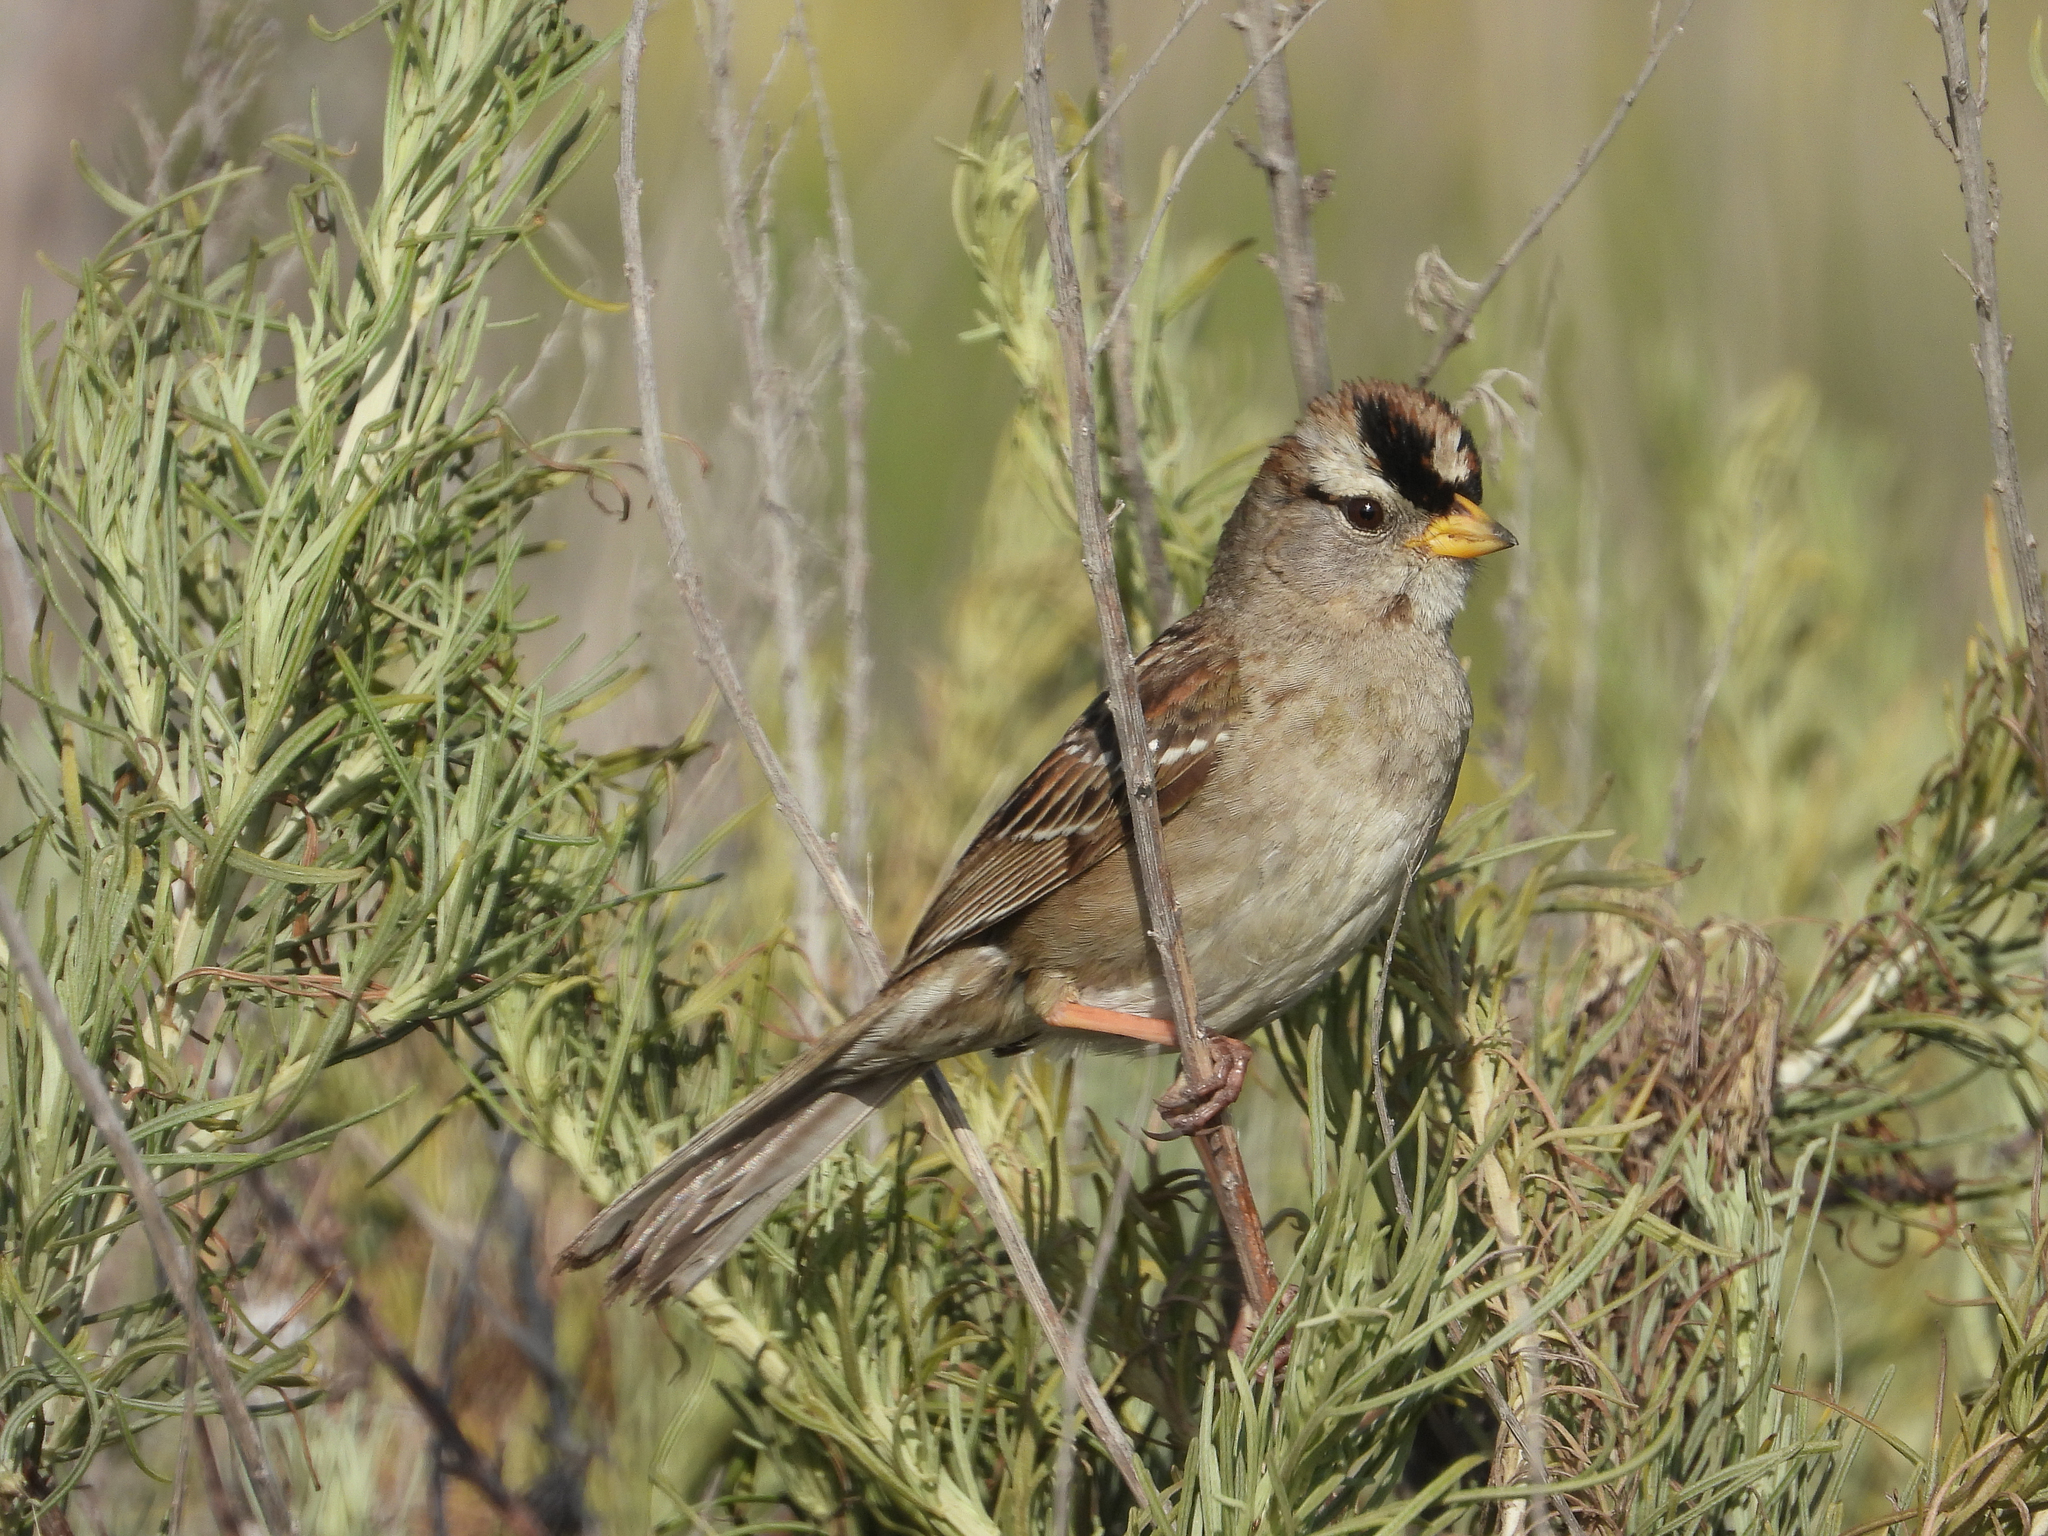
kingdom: Animalia
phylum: Chordata
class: Aves
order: Passeriformes
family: Passerellidae
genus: Zonotrichia
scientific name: Zonotrichia leucophrys
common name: White-crowned sparrow
